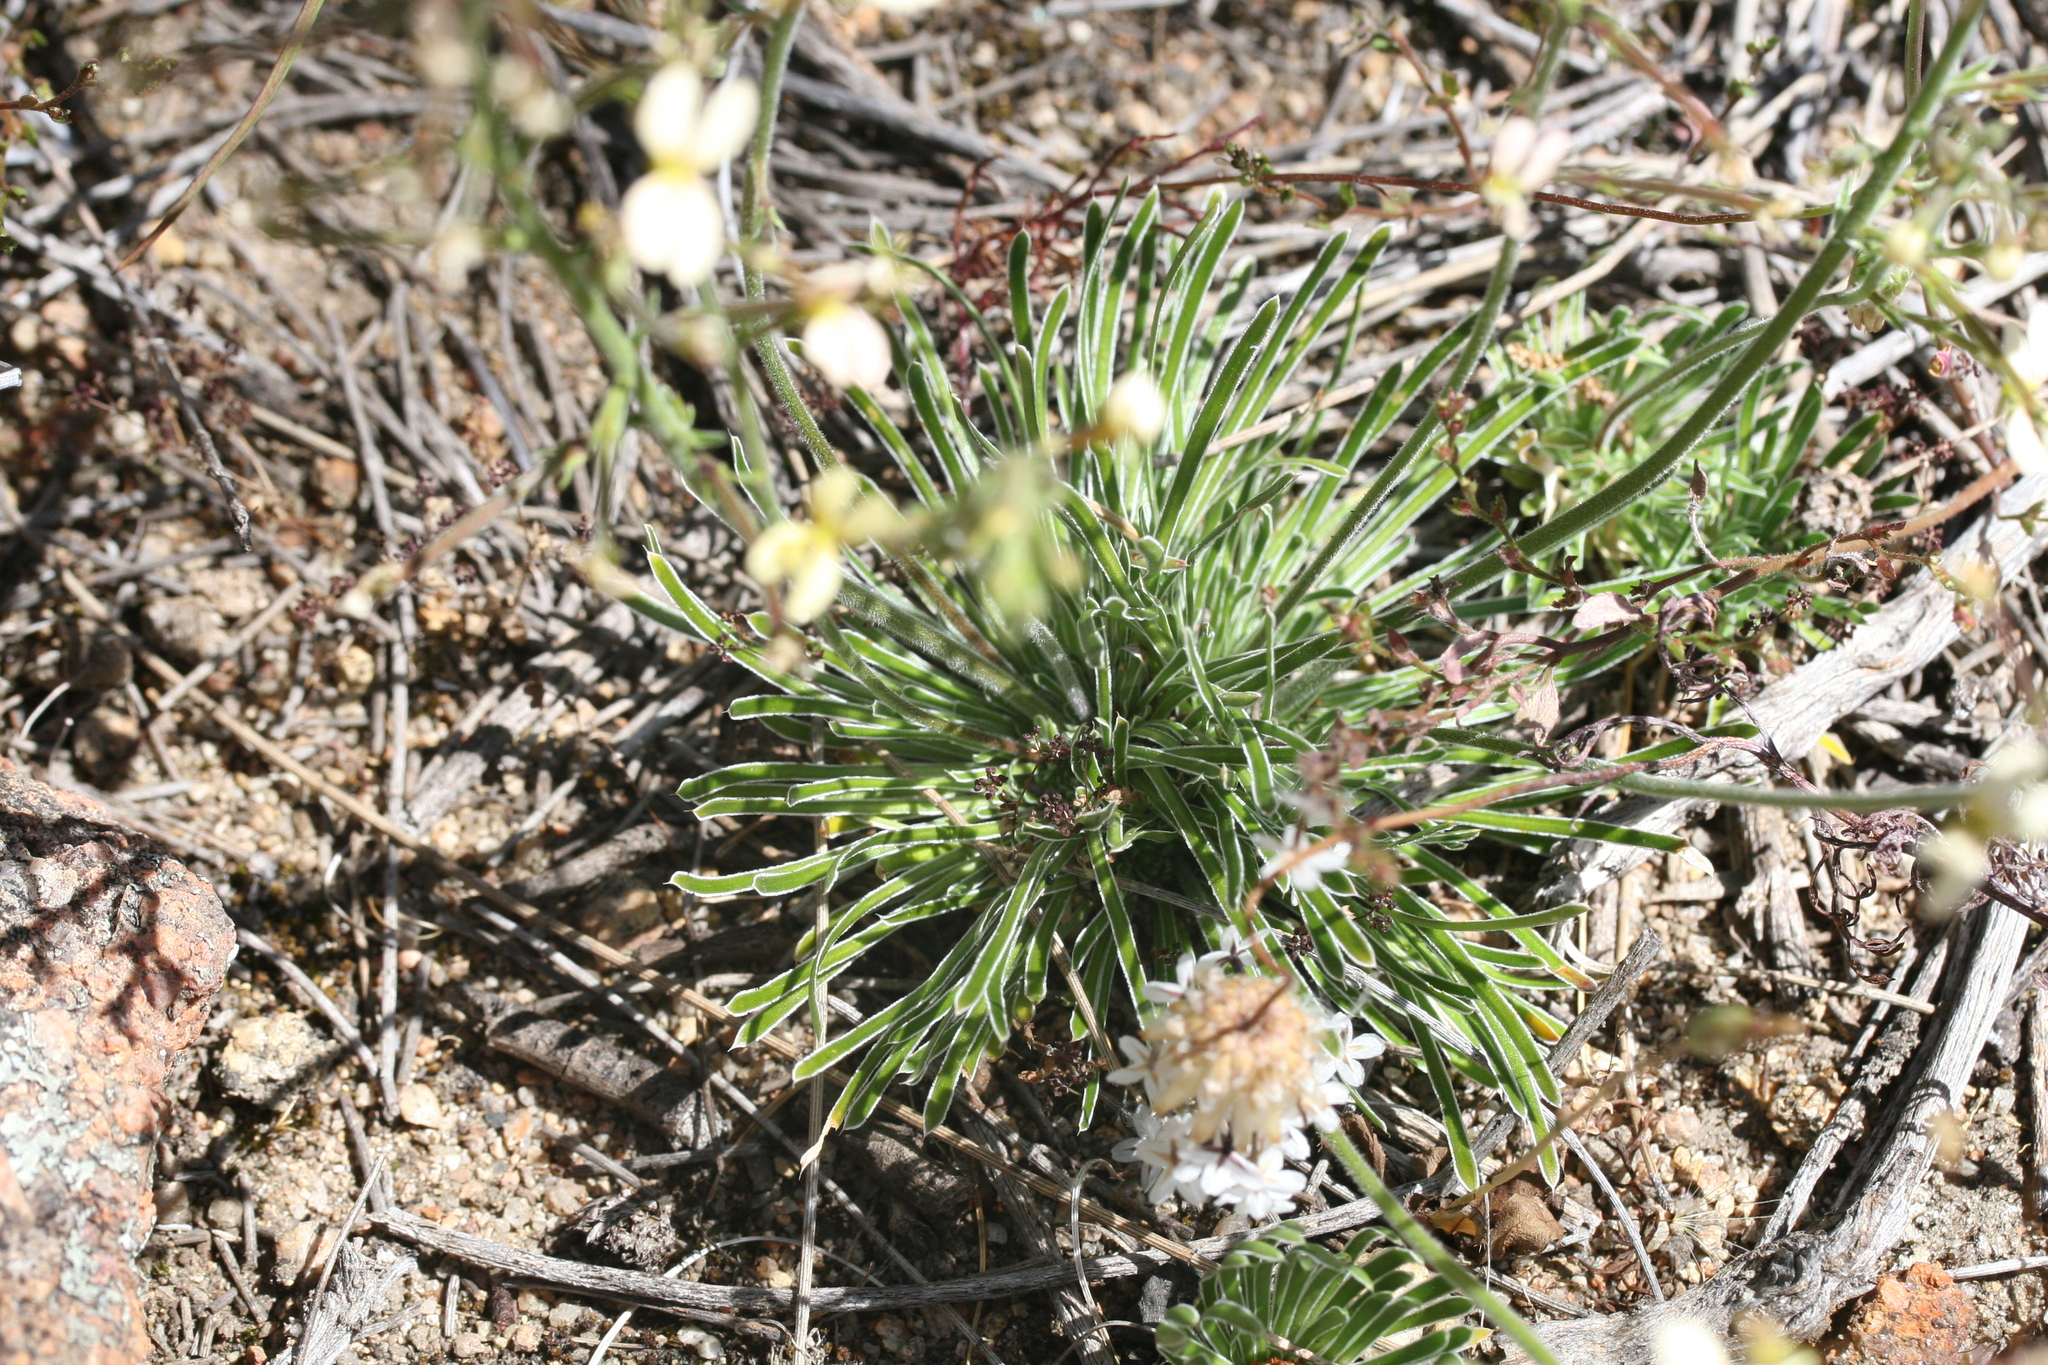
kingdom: Plantae
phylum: Tracheophyta
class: Magnoliopsida
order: Asterales
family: Stylidiaceae
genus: Stylidium
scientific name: Stylidium tenuicarpum
